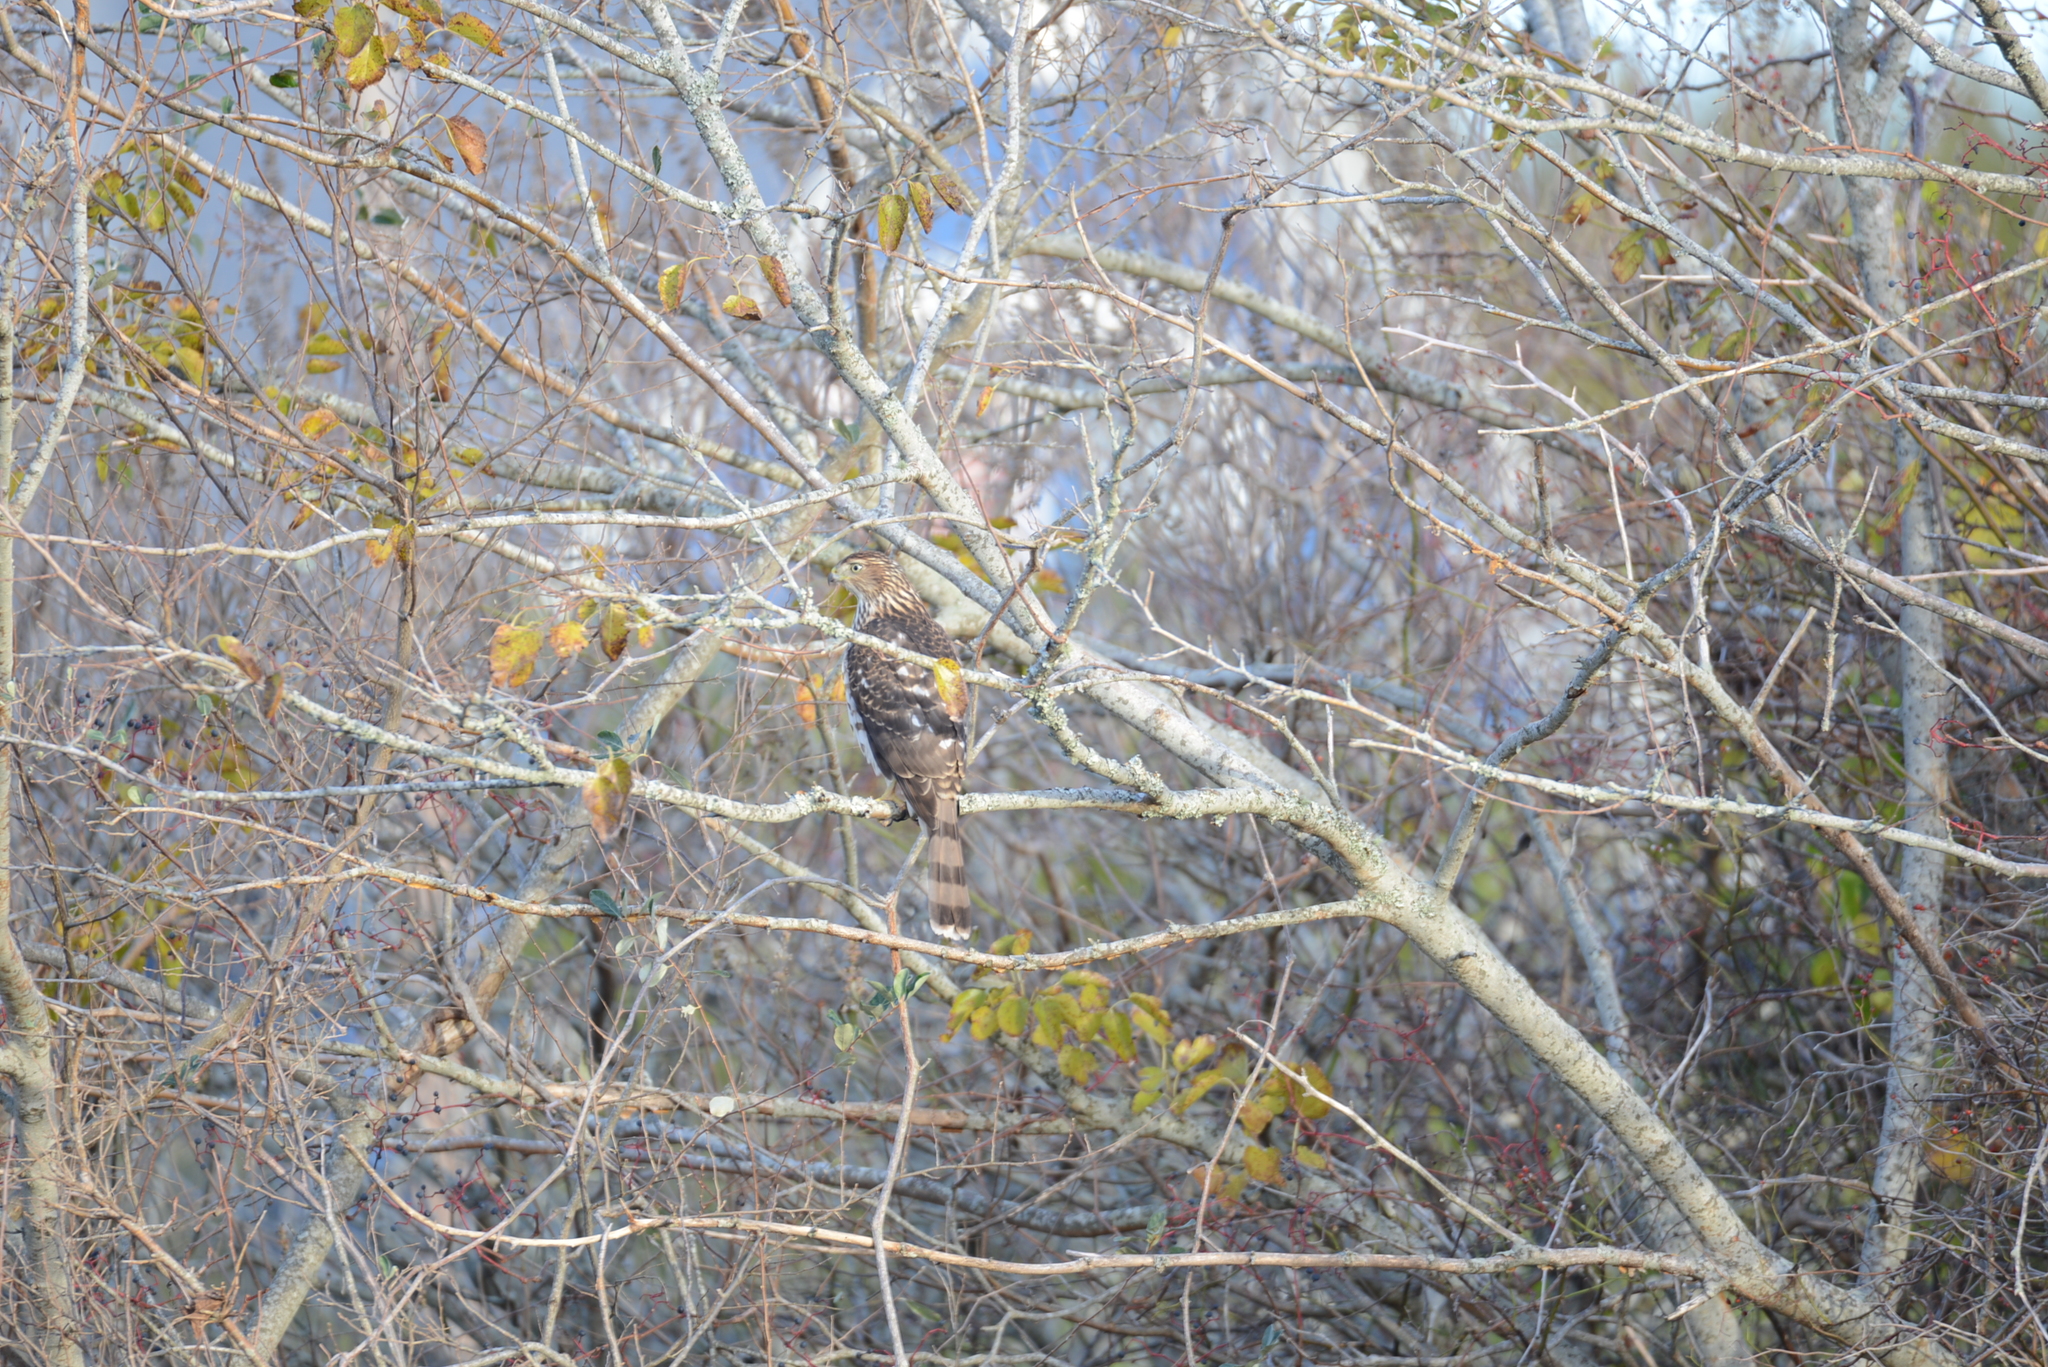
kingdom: Animalia
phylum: Chordata
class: Aves
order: Accipitriformes
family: Accipitridae
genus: Accipiter
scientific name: Accipiter cooperii
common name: Cooper's hawk
